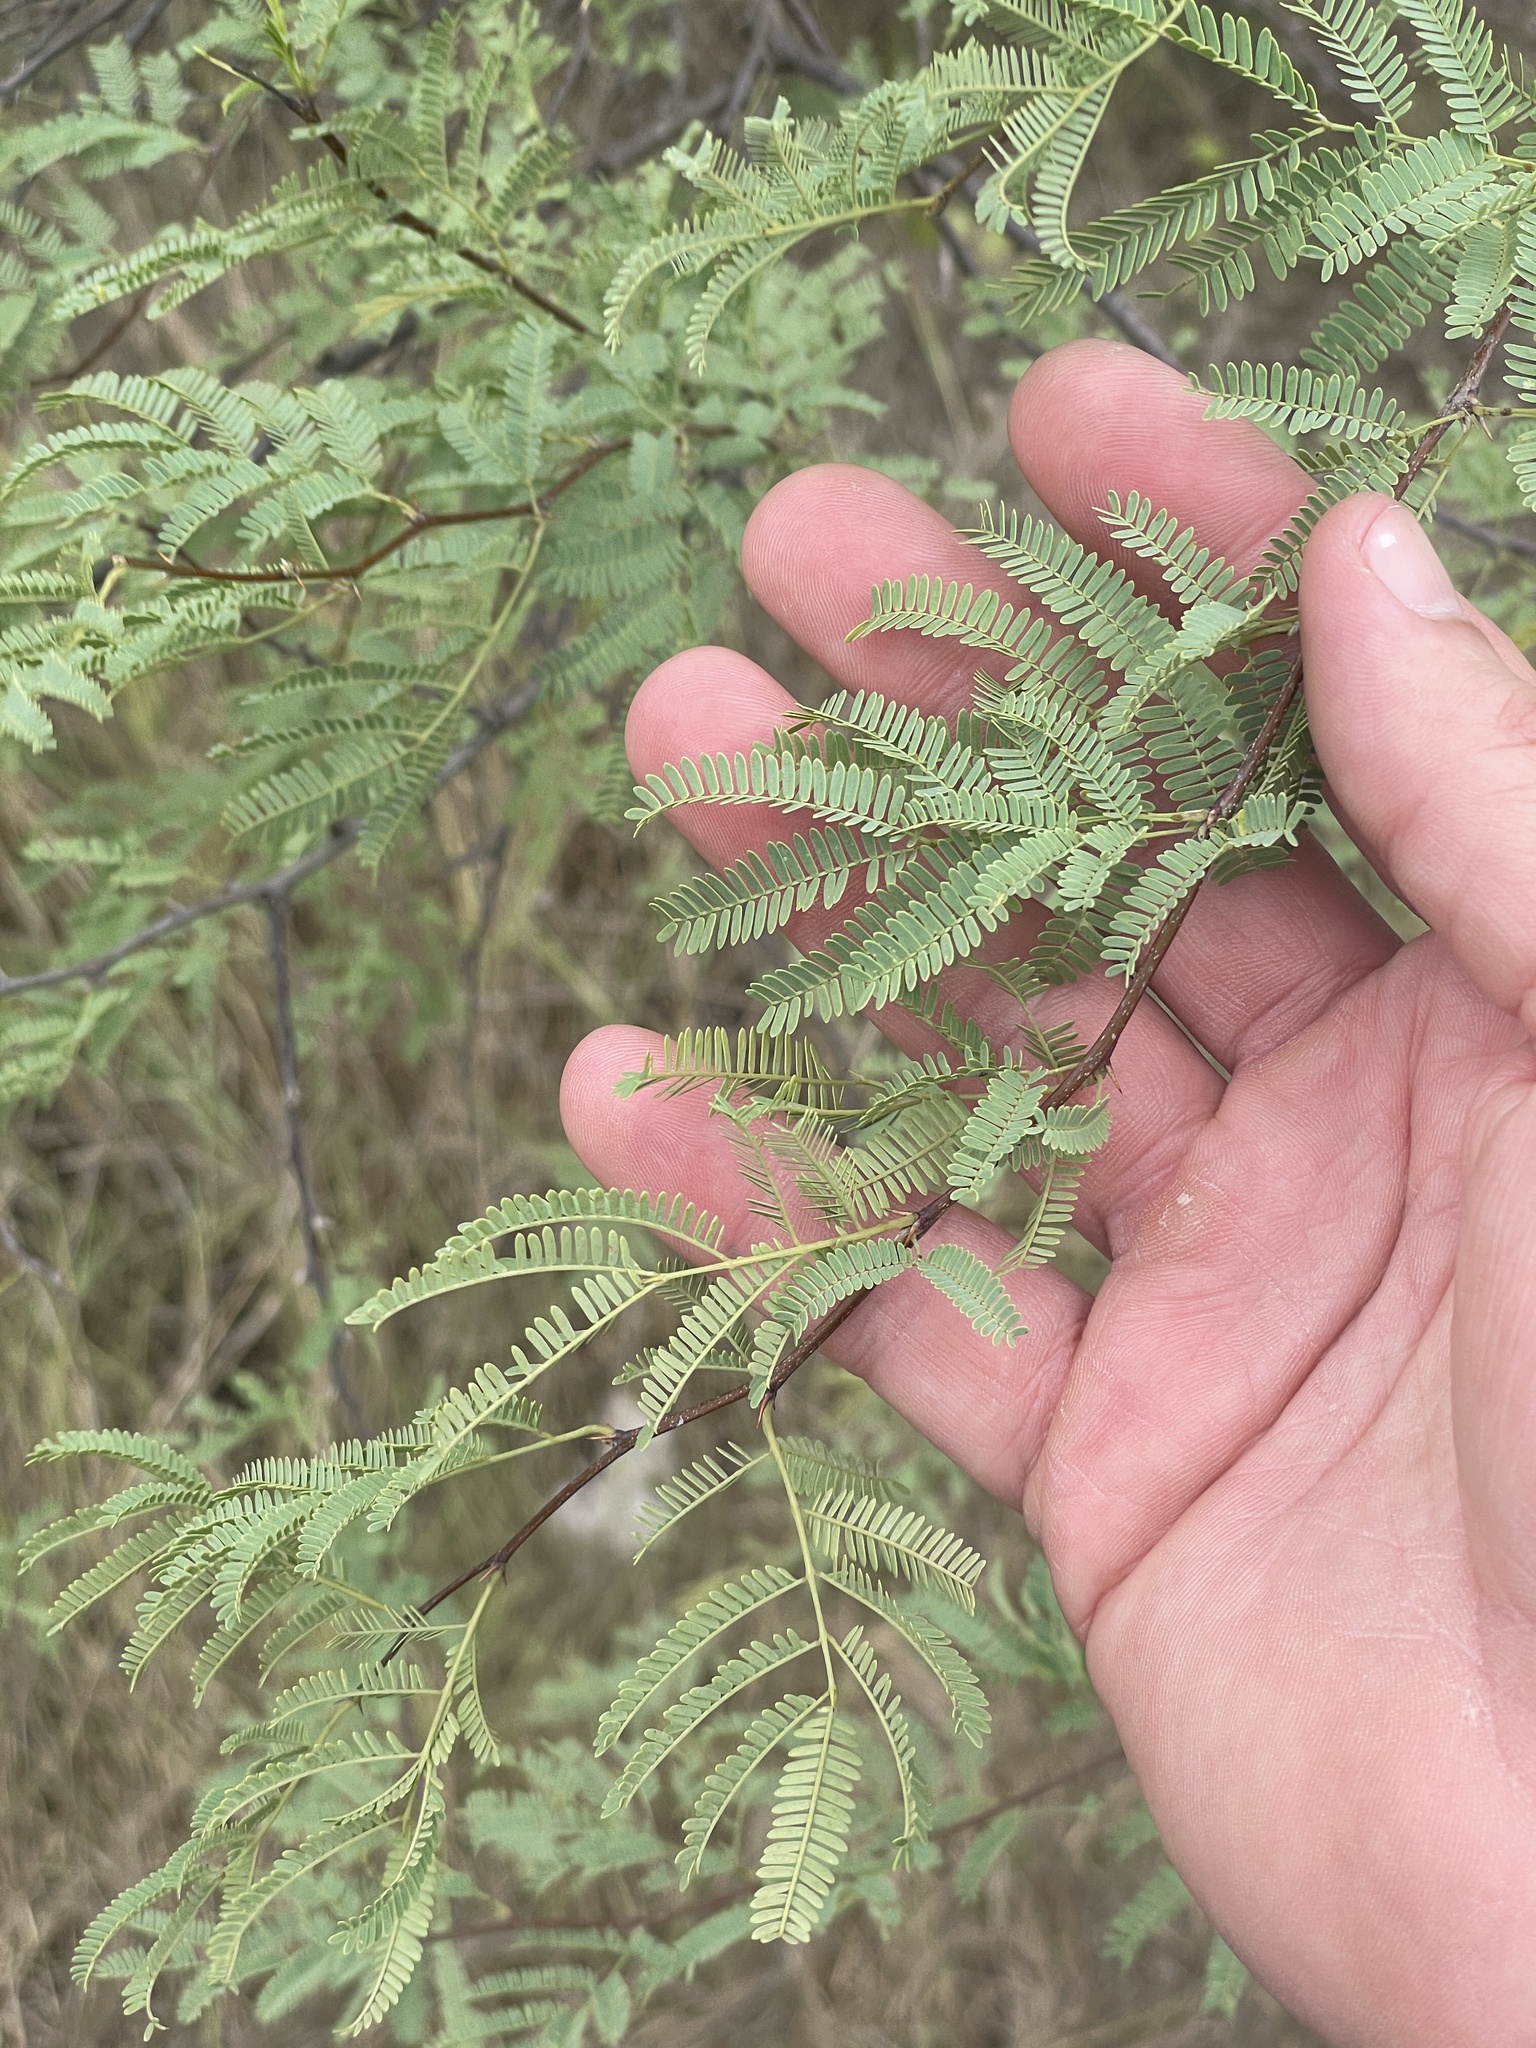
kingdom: Plantae
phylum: Tracheophyta
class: Magnoliopsida
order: Fabales
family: Fabaceae
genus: Vachellia
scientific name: Vachellia farnesiana
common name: Sweet acacia
